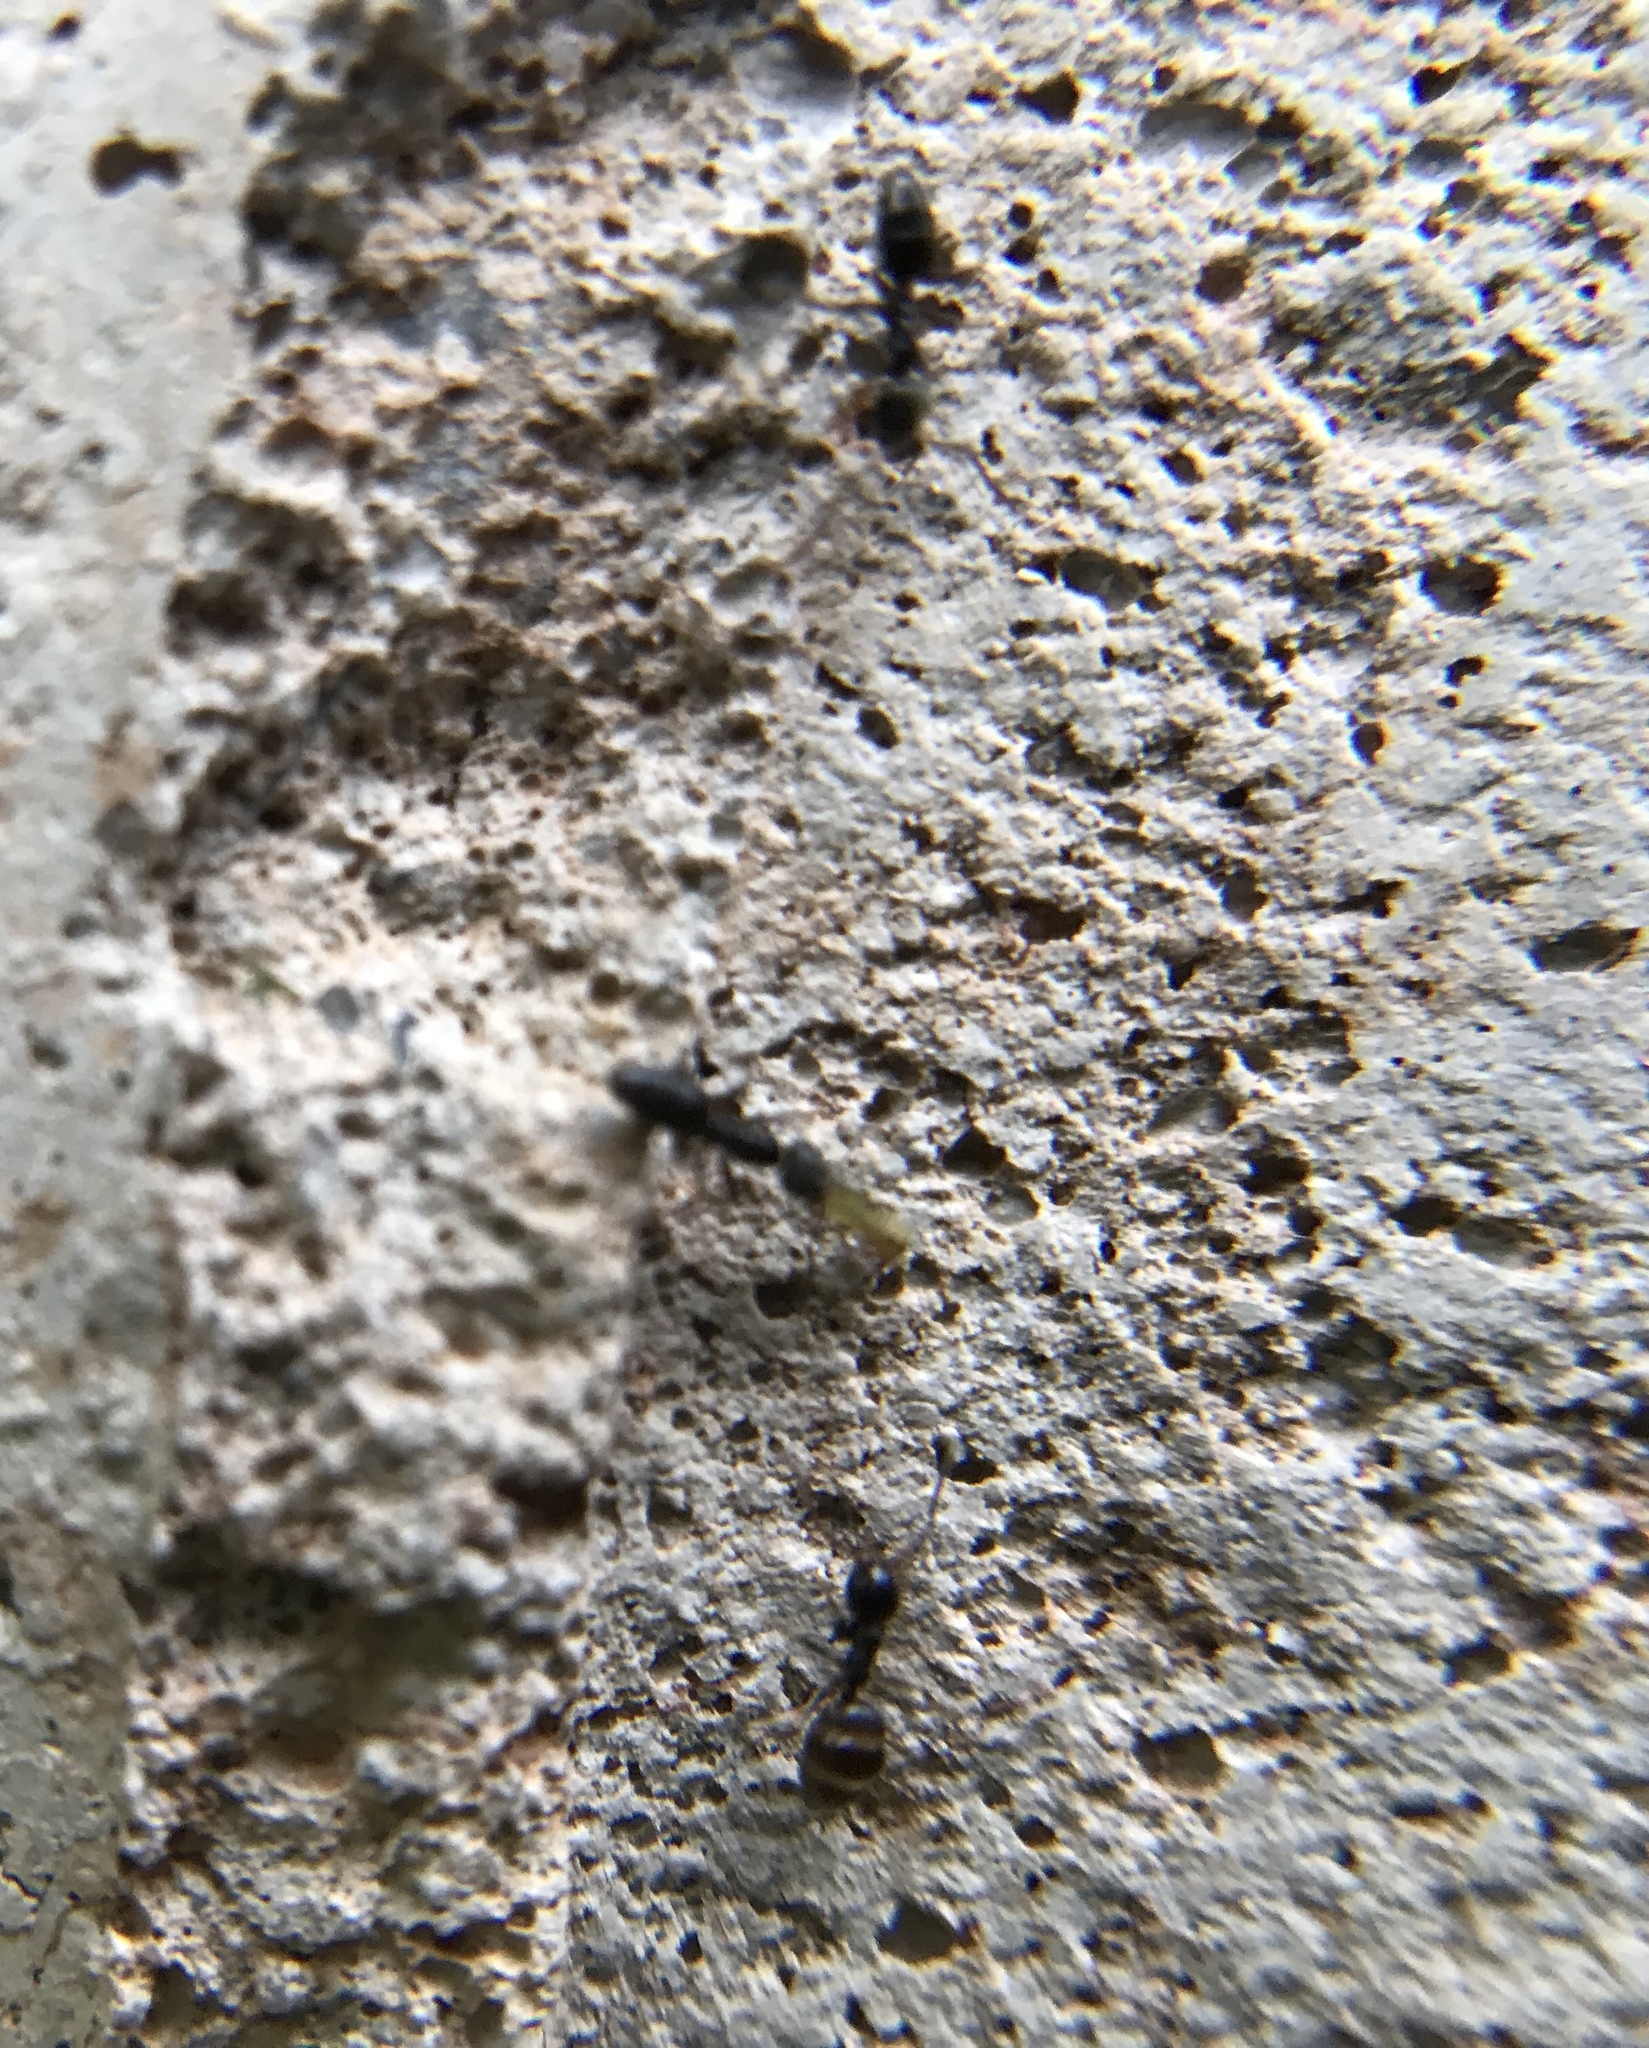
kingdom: Animalia
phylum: Arthropoda
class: Insecta
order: Hymenoptera
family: Formicidae
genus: Tapinoma
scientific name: Tapinoma sessile
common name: Odorous house ant
